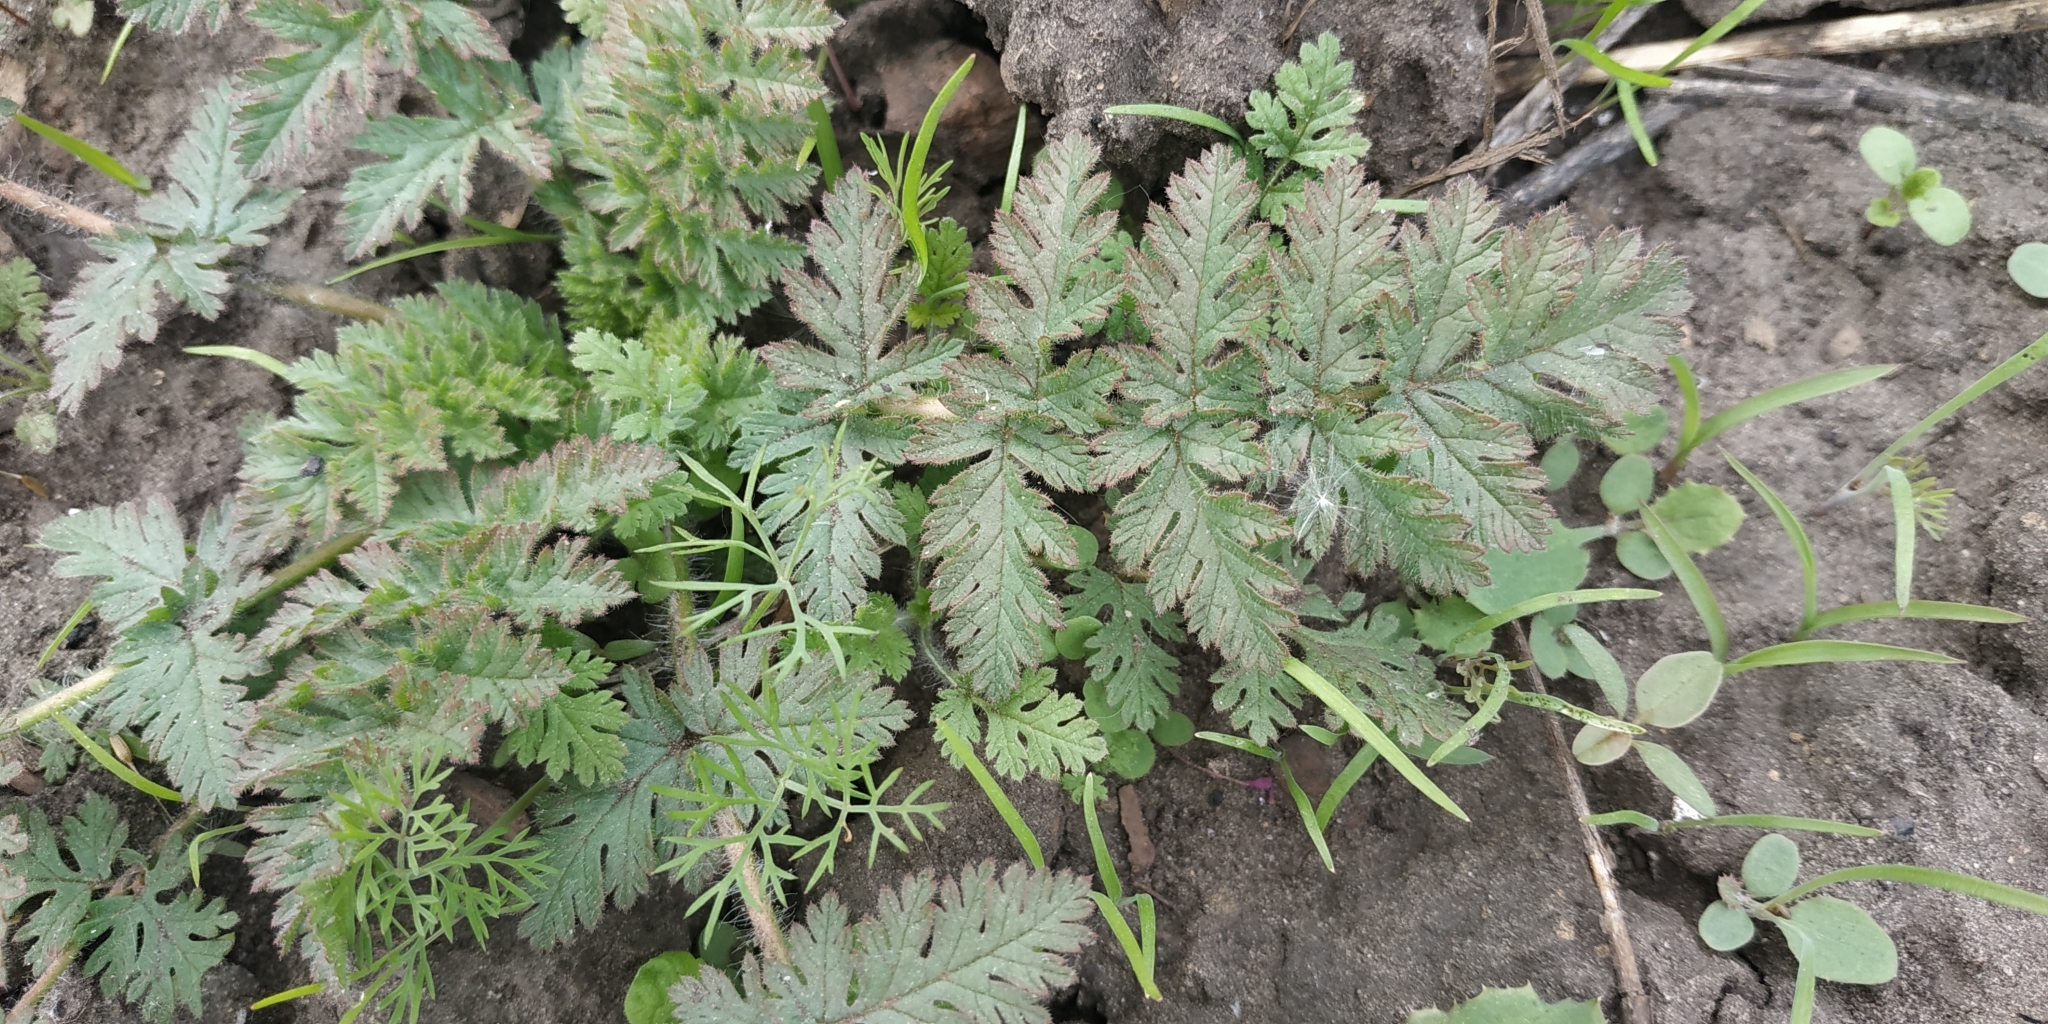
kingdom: Plantae
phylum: Tracheophyta
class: Magnoliopsida
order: Geraniales
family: Geraniaceae
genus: Erodium
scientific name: Erodium cicutarium
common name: Common stork's-bill
